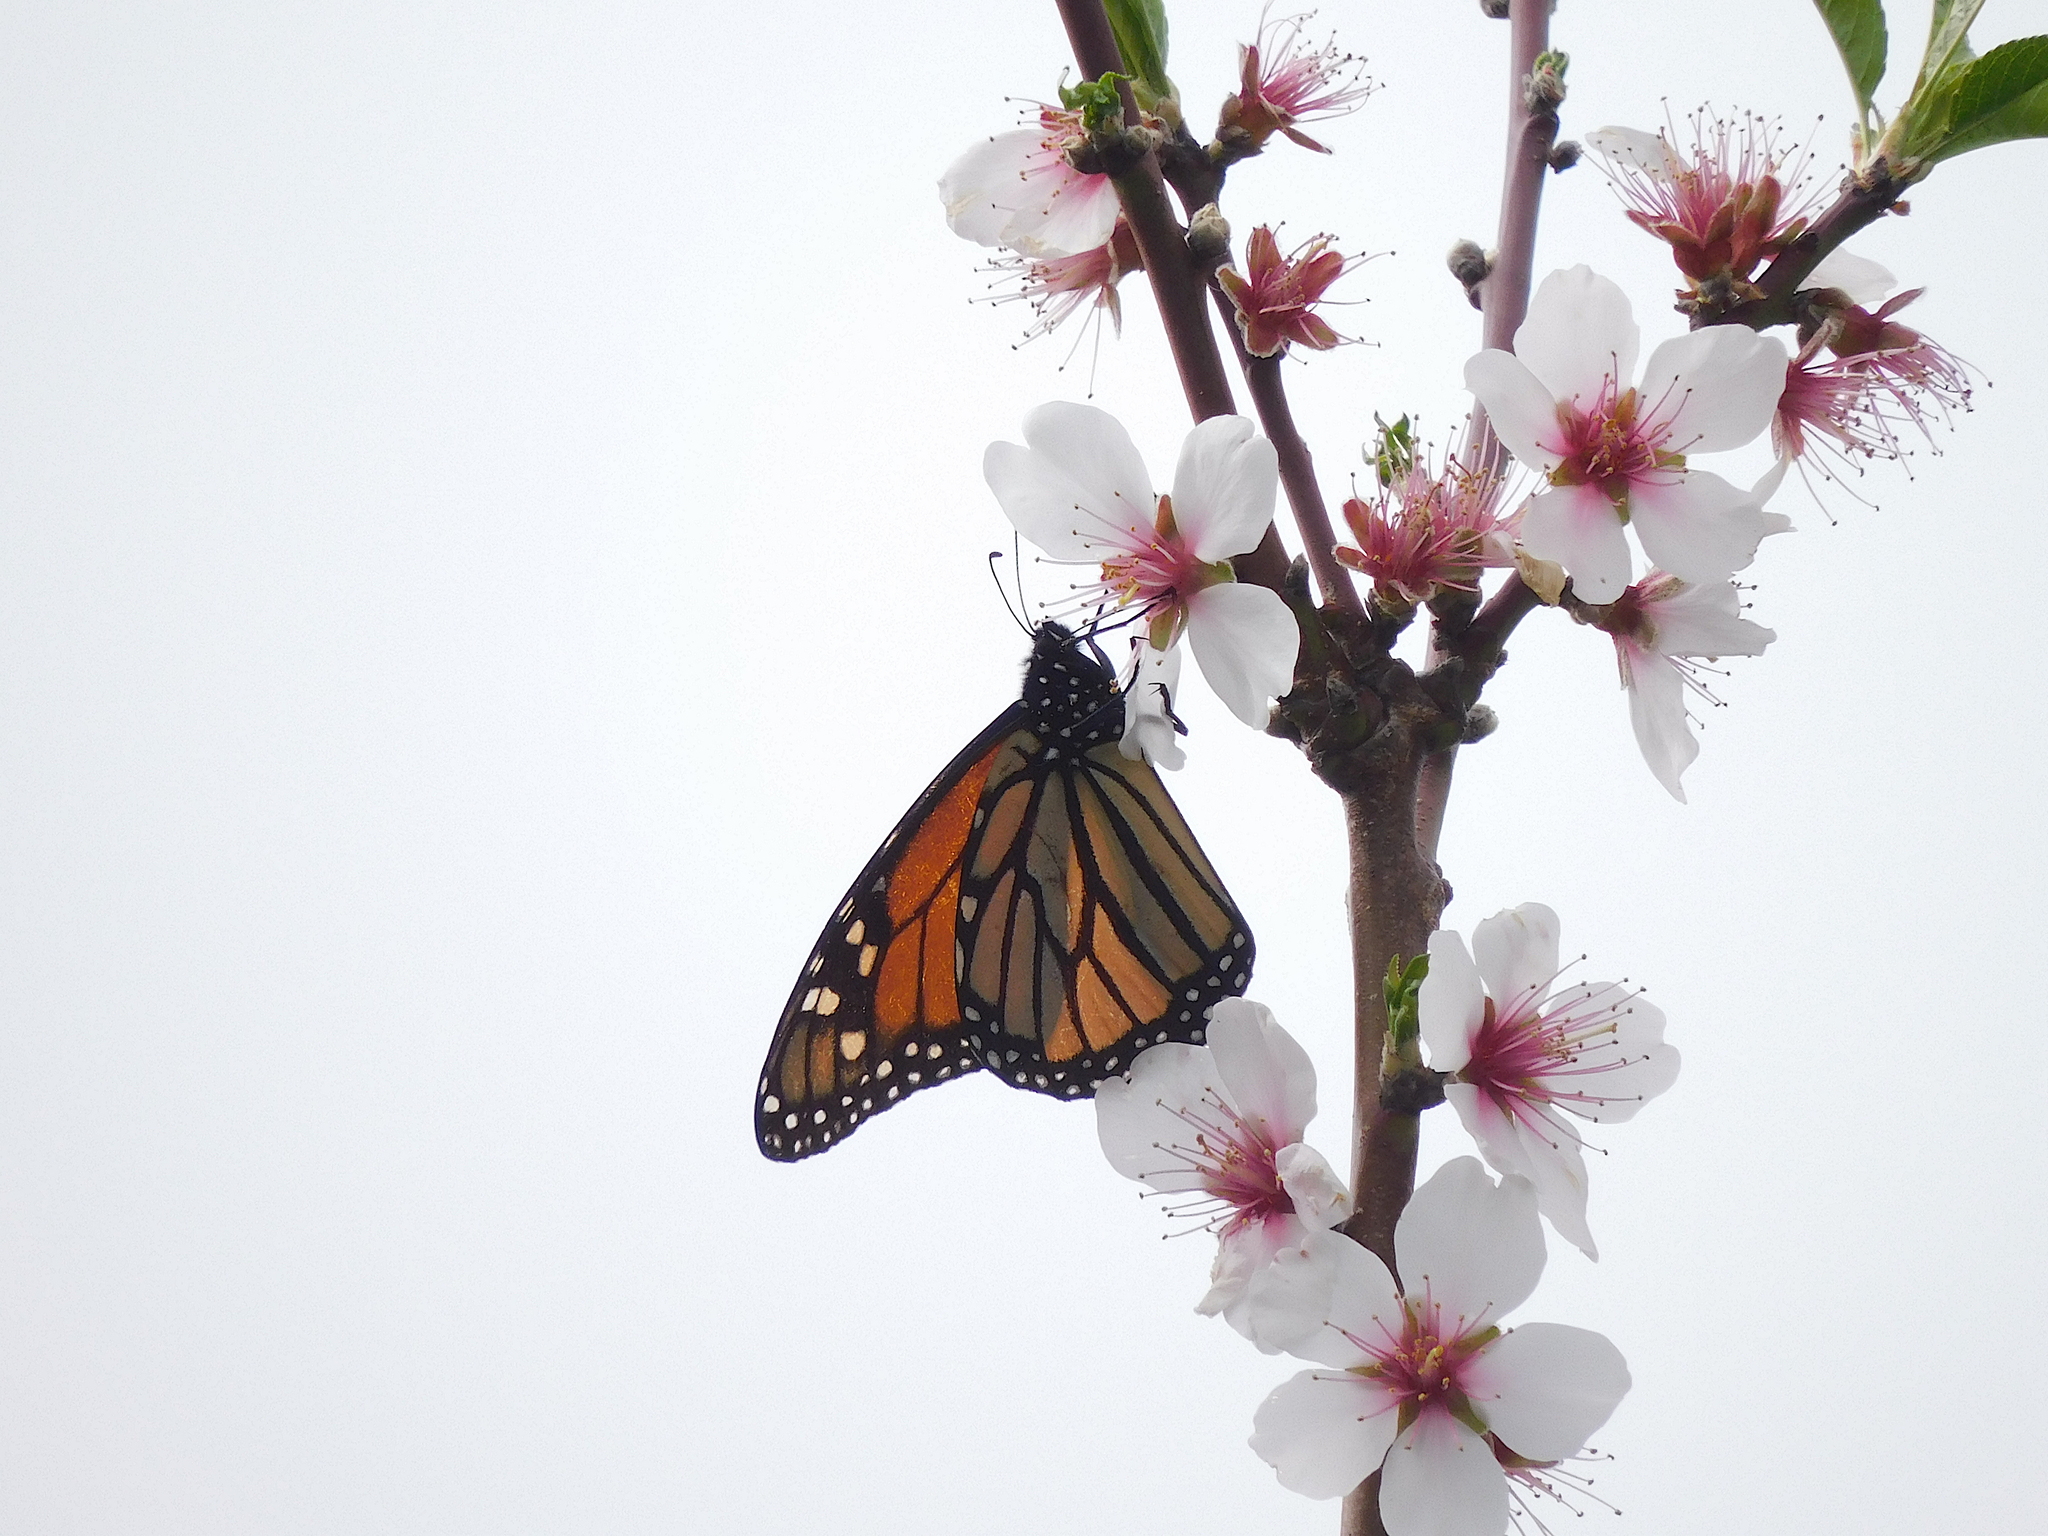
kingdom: Animalia
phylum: Arthropoda
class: Insecta
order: Lepidoptera
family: Nymphalidae
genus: Danaus
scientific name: Danaus plexippus
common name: Monarch
